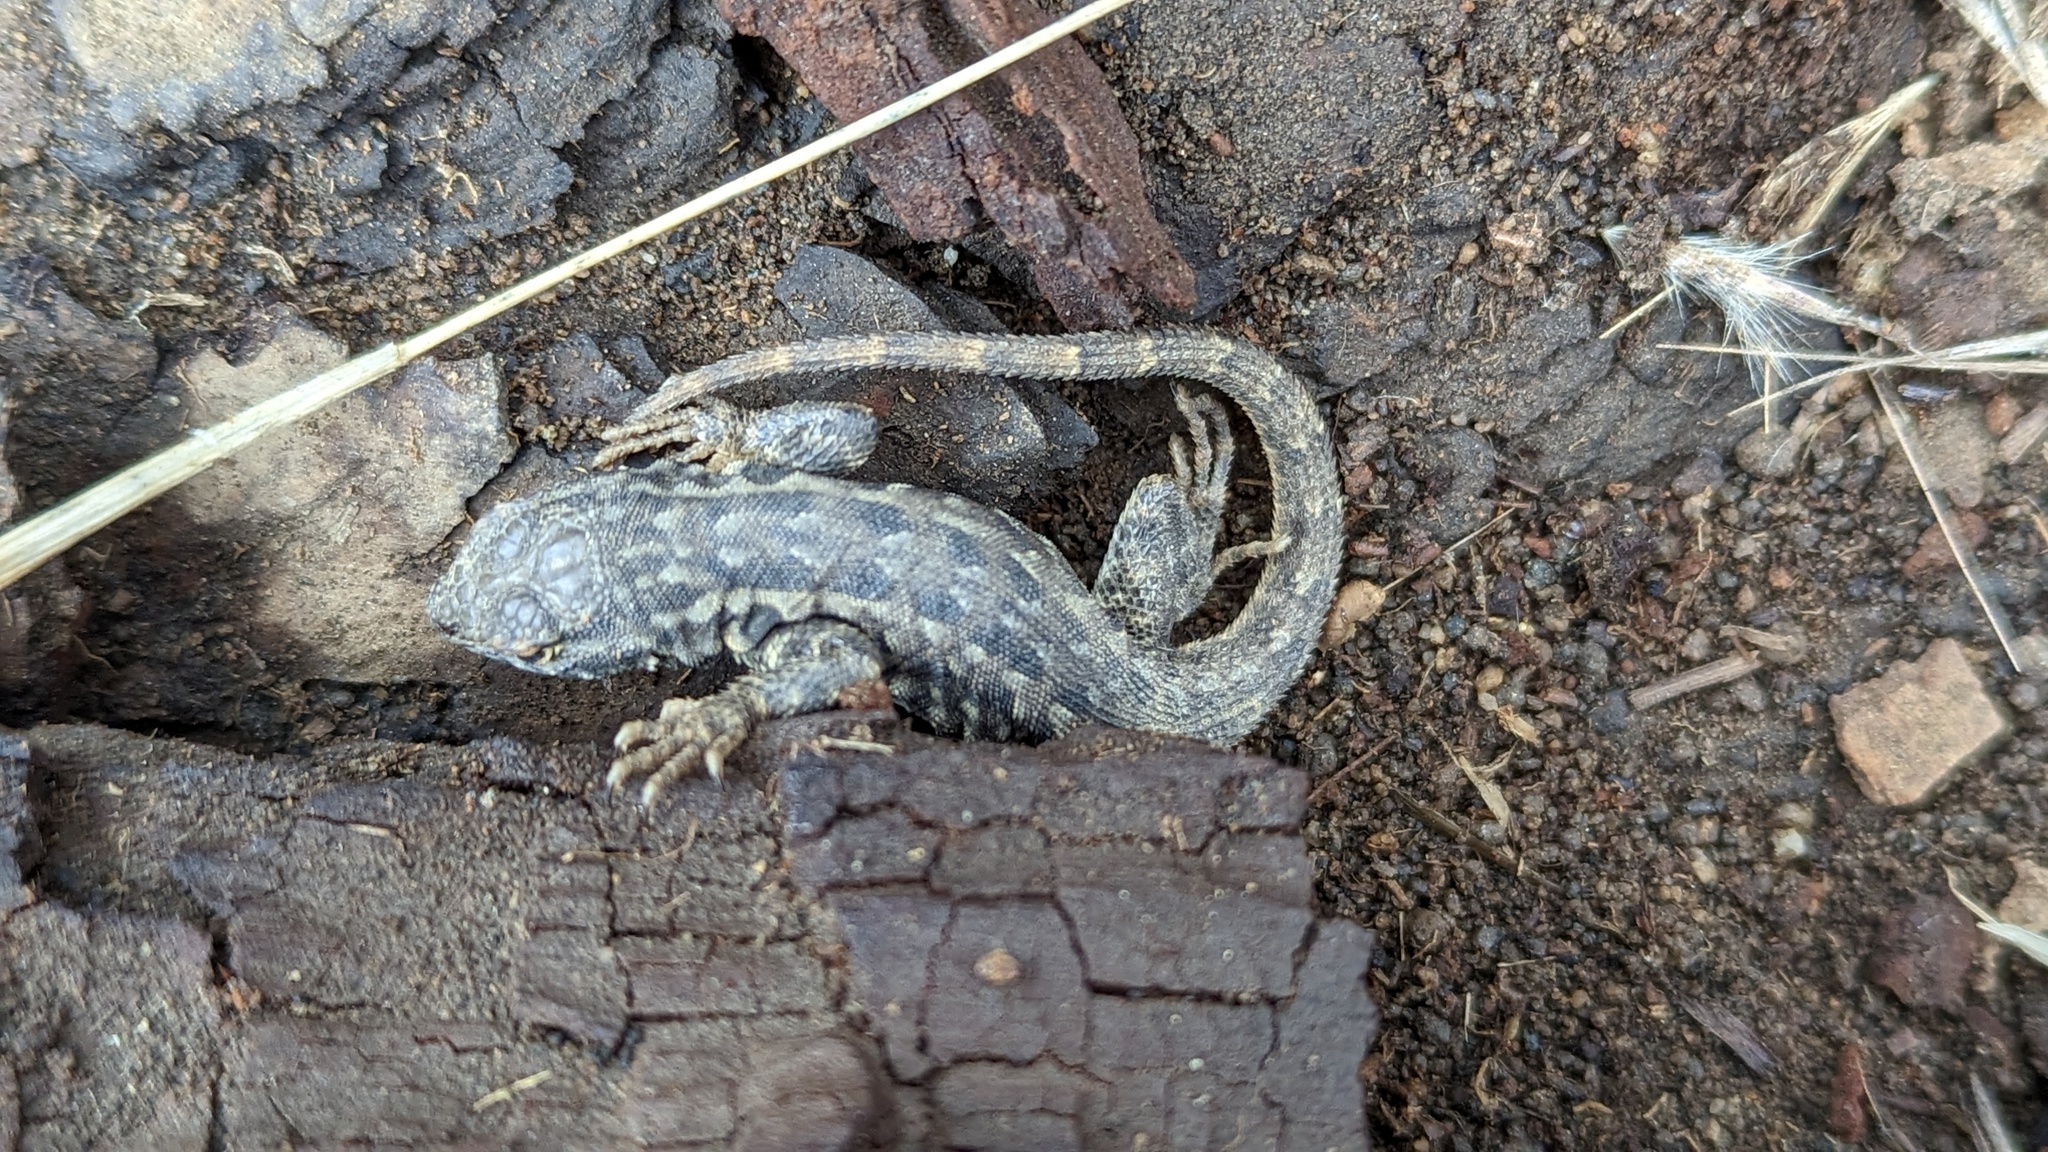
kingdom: Animalia
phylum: Chordata
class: Squamata
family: Phrynosomatidae
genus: Uta
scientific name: Uta stansburiana
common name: Side-blotched lizard
